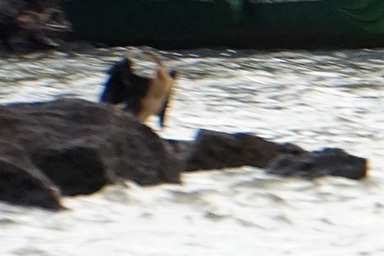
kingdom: Animalia
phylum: Chordata
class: Aves
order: Suliformes
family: Anhingidae
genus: Anhinga
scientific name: Anhinga rufa
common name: African darter
